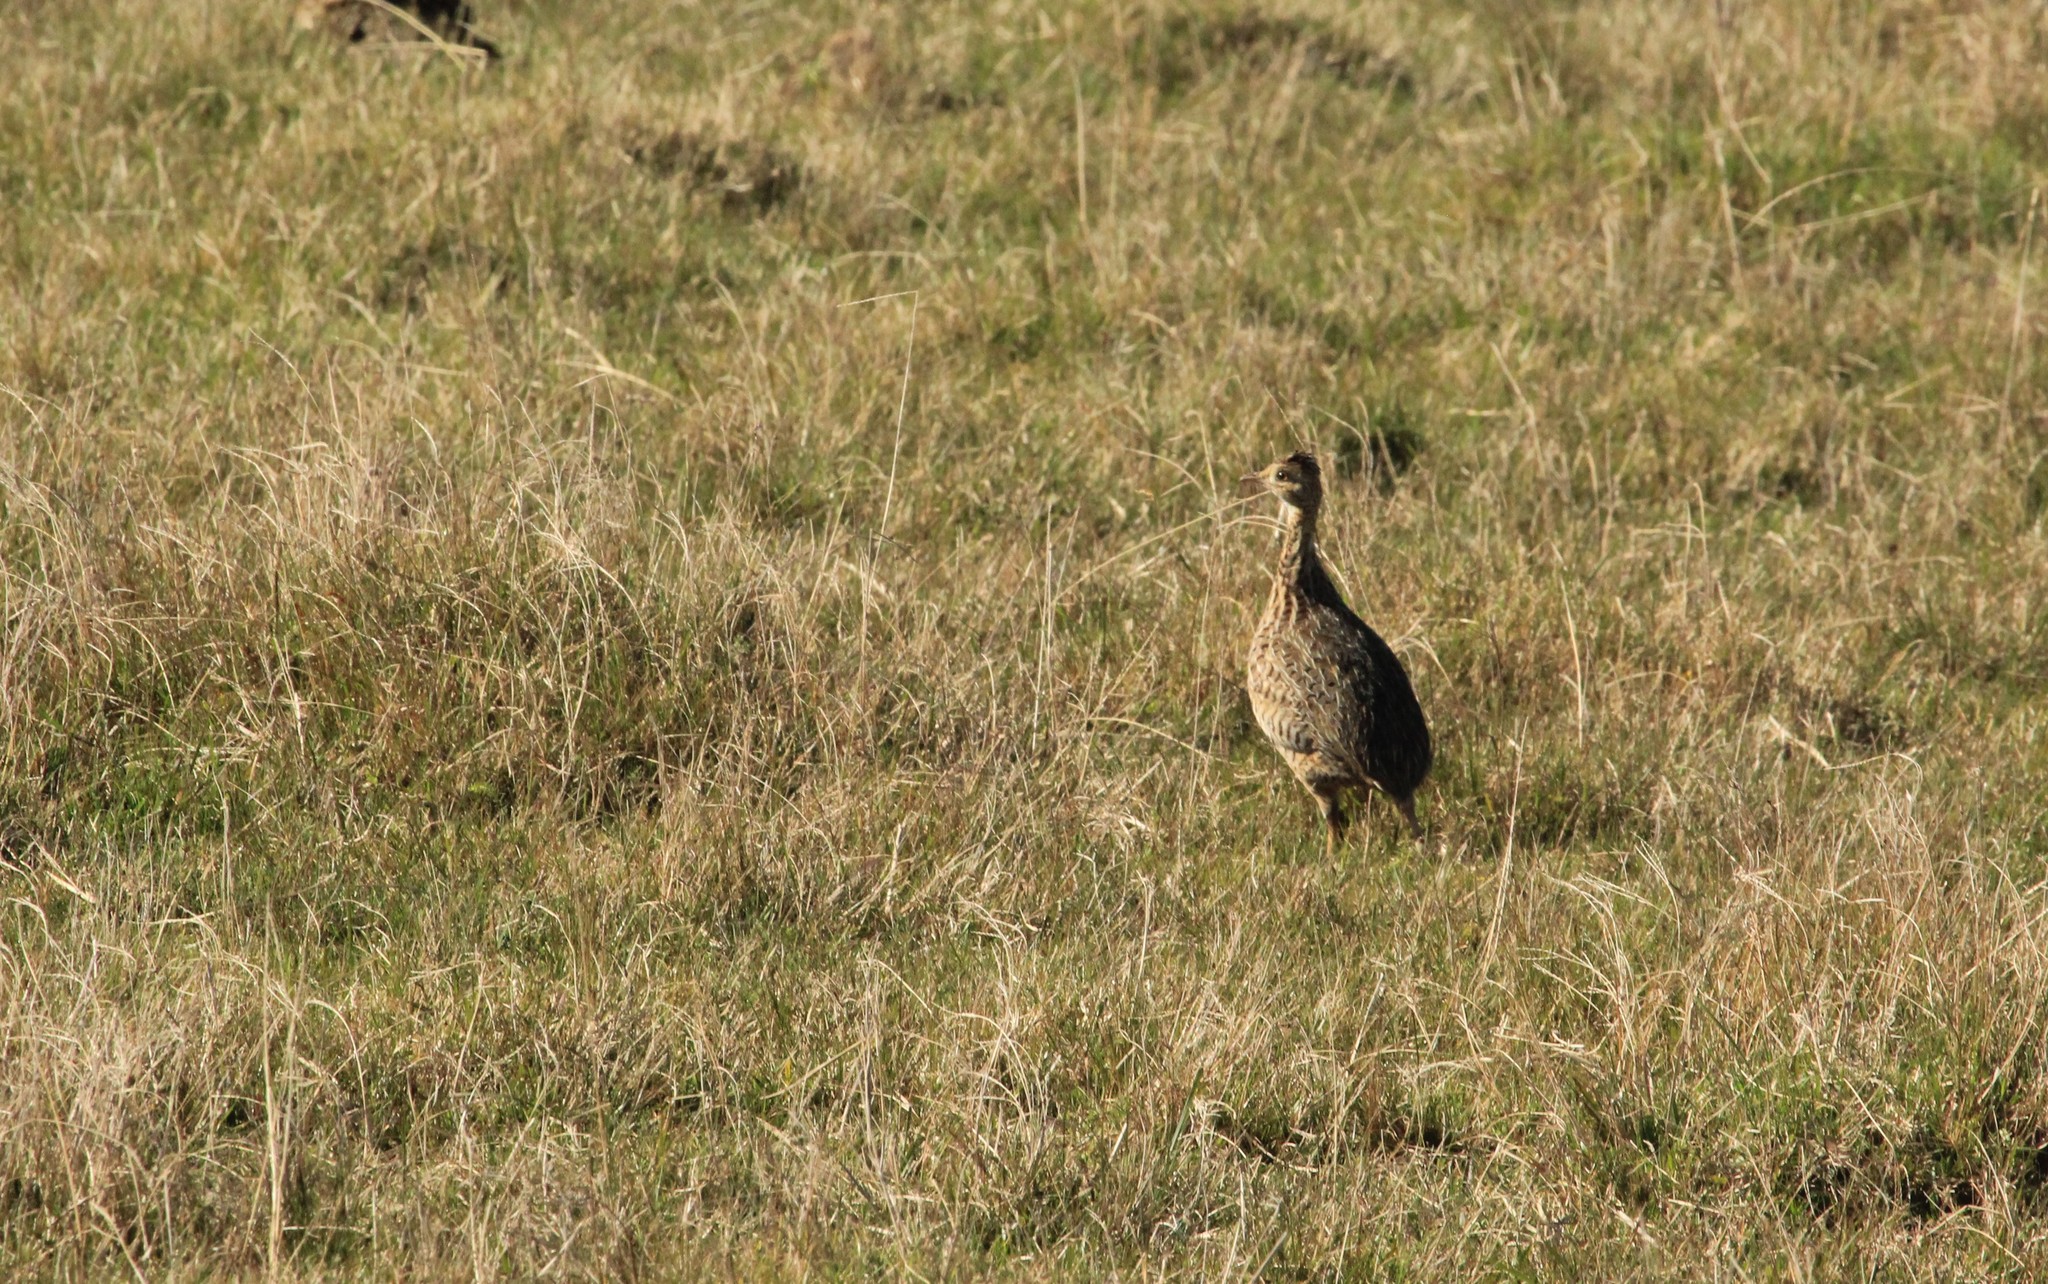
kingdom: Animalia
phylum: Chordata
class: Aves
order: Tinamiformes
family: Tinamidae
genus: Nothura
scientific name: Nothura maculosa
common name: Spotted nothura
